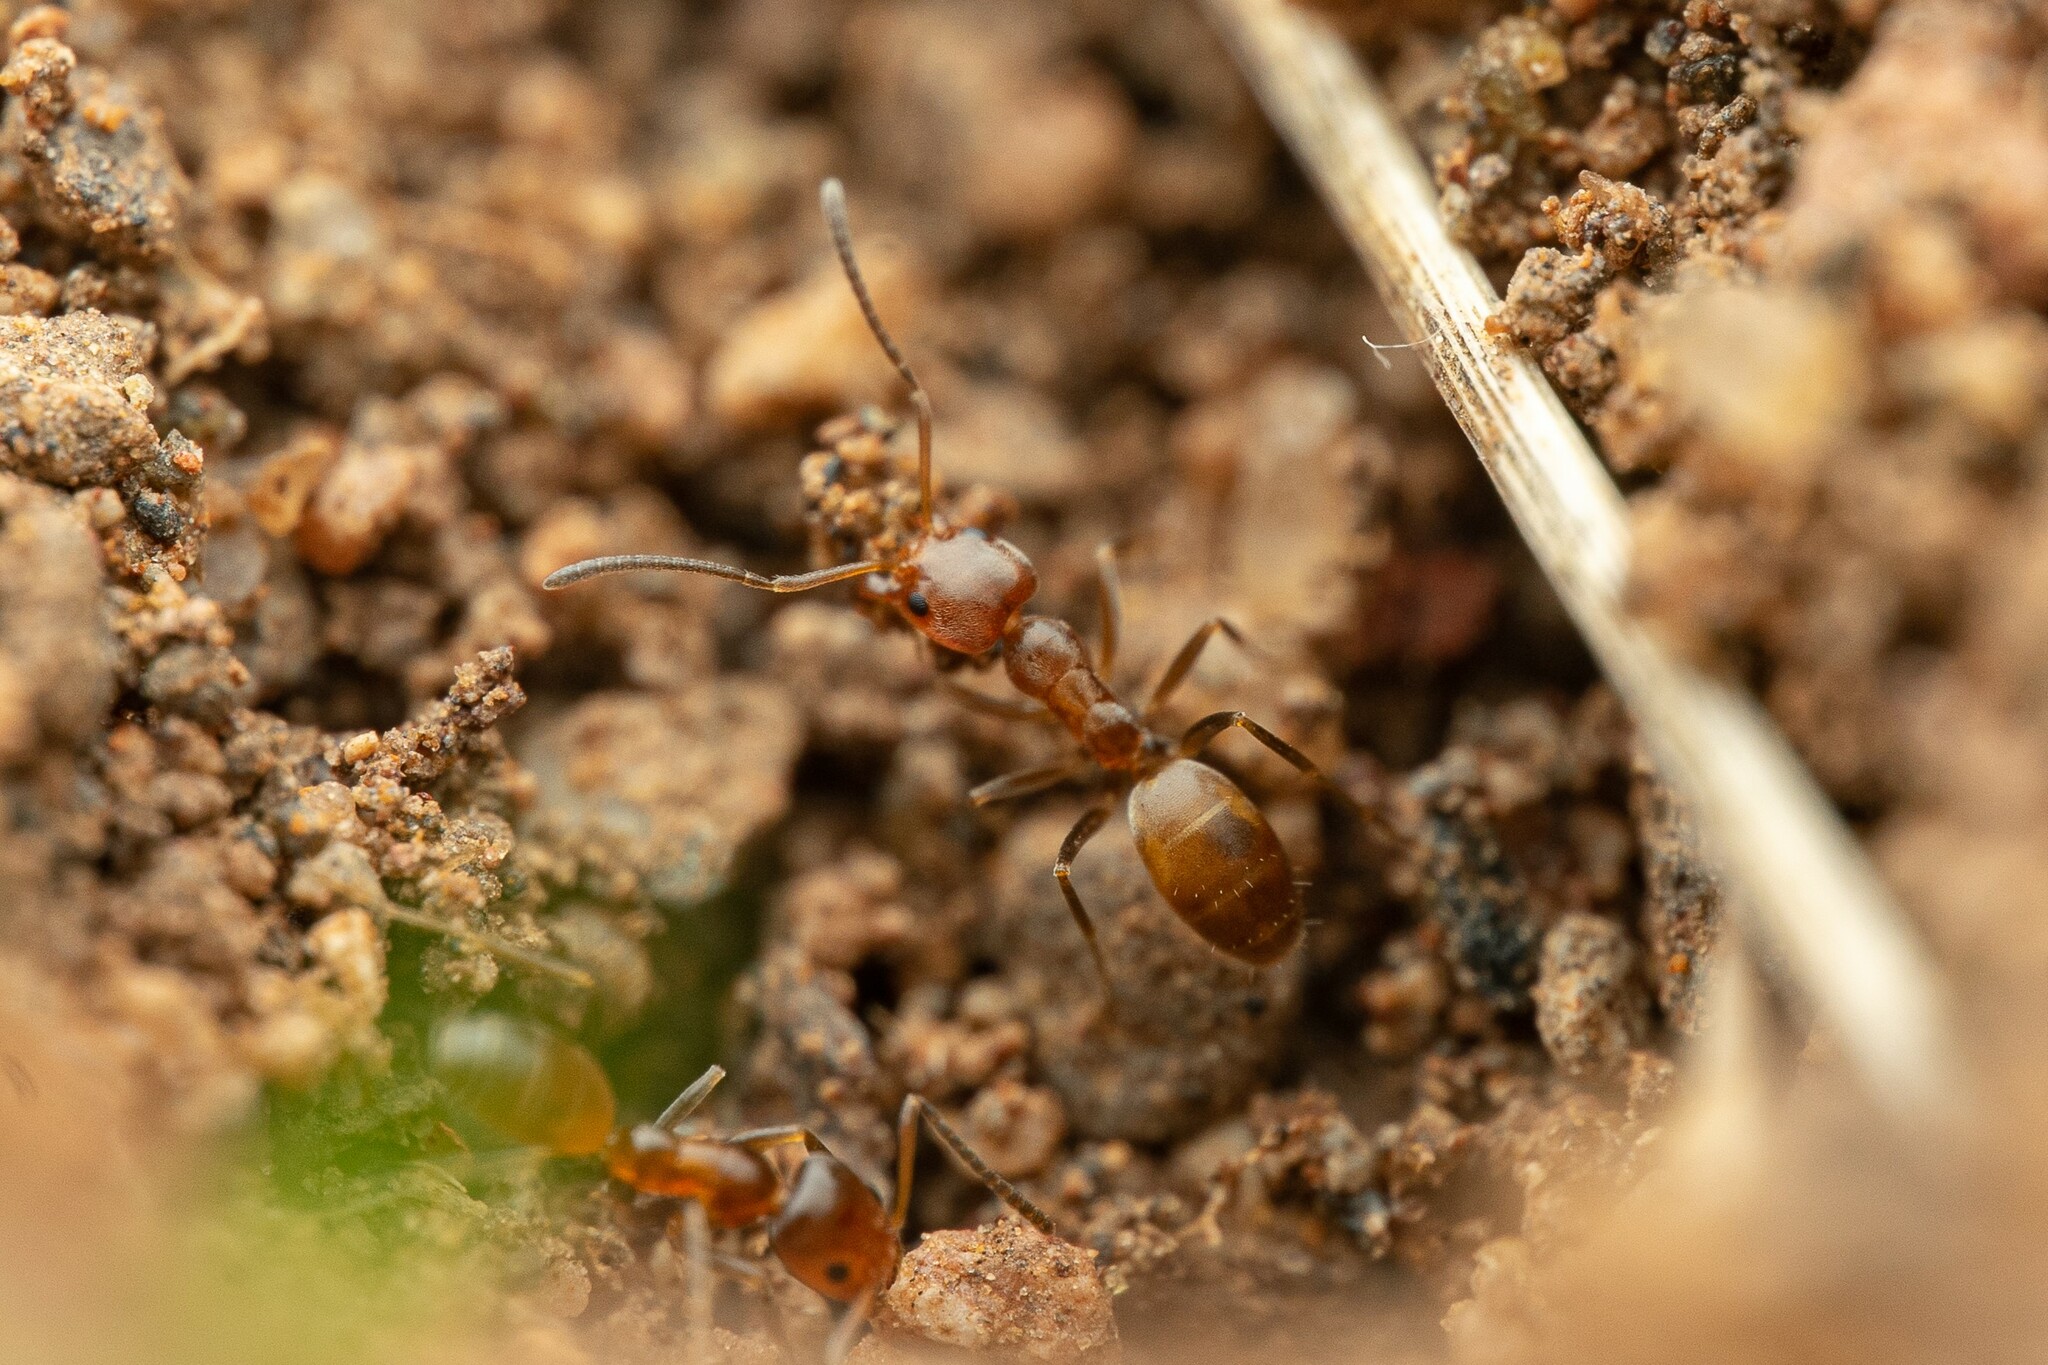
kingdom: Animalia
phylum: Arthropoda
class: Insecta
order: Hymenoptera
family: Formicidae
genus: Forelius
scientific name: Forelius pruinosus
